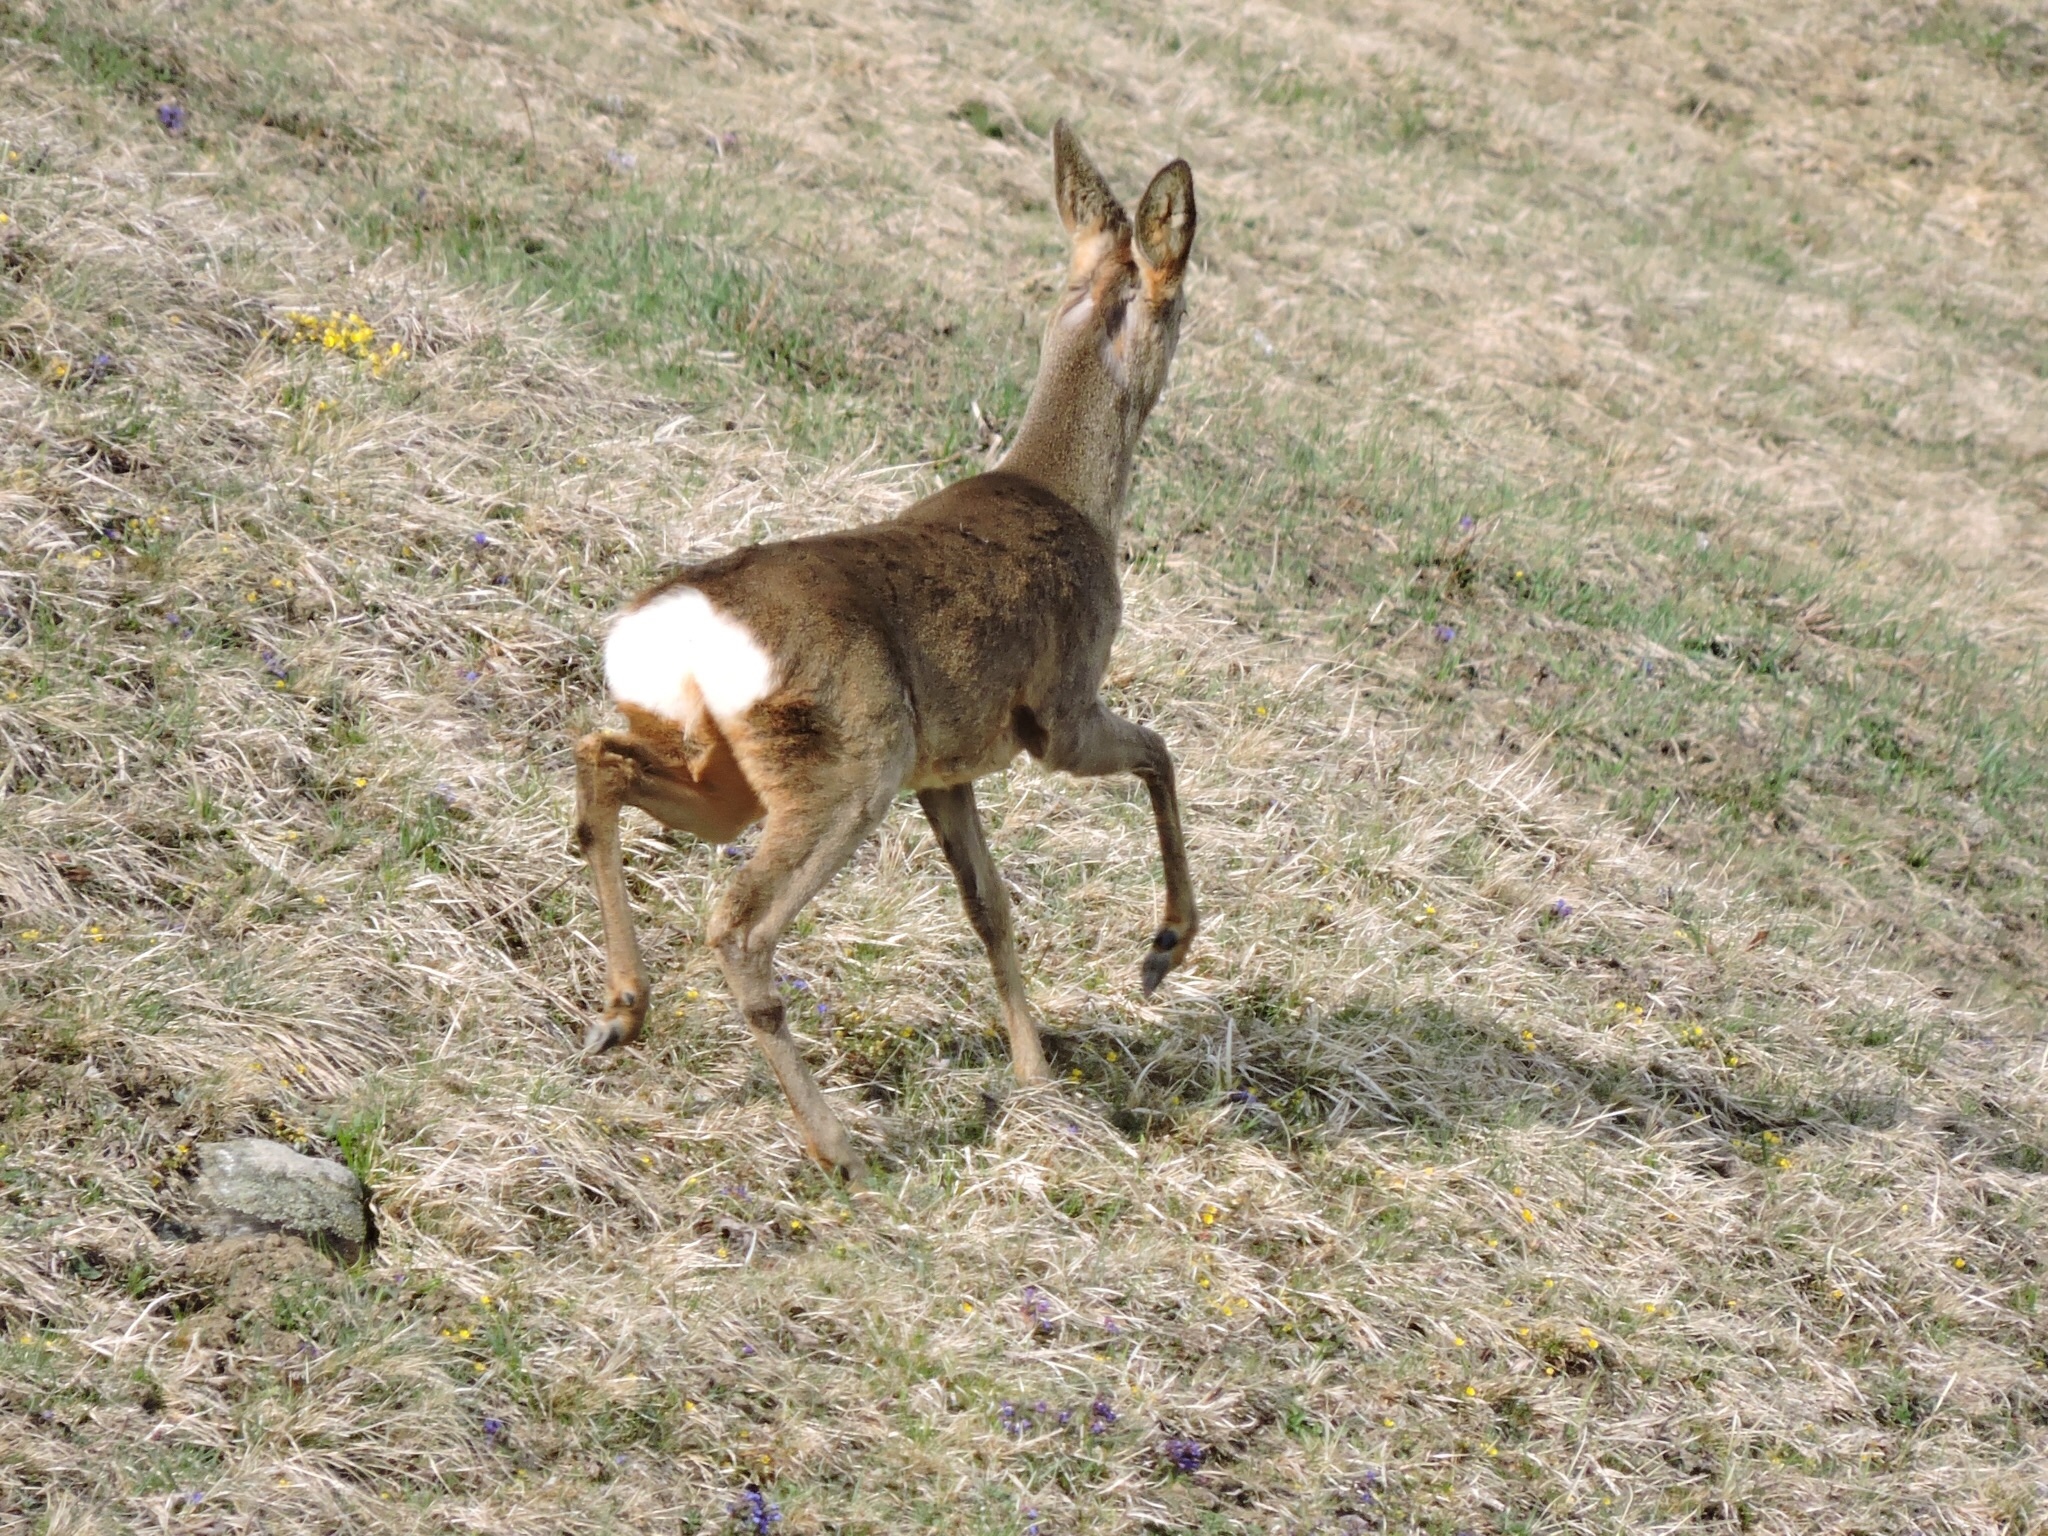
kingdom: Animalia
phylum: Chordata
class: Mammalia
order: Artiodactyla
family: Cervidae
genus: Capreolus
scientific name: Capreolus capreolus
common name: Western roe deer
